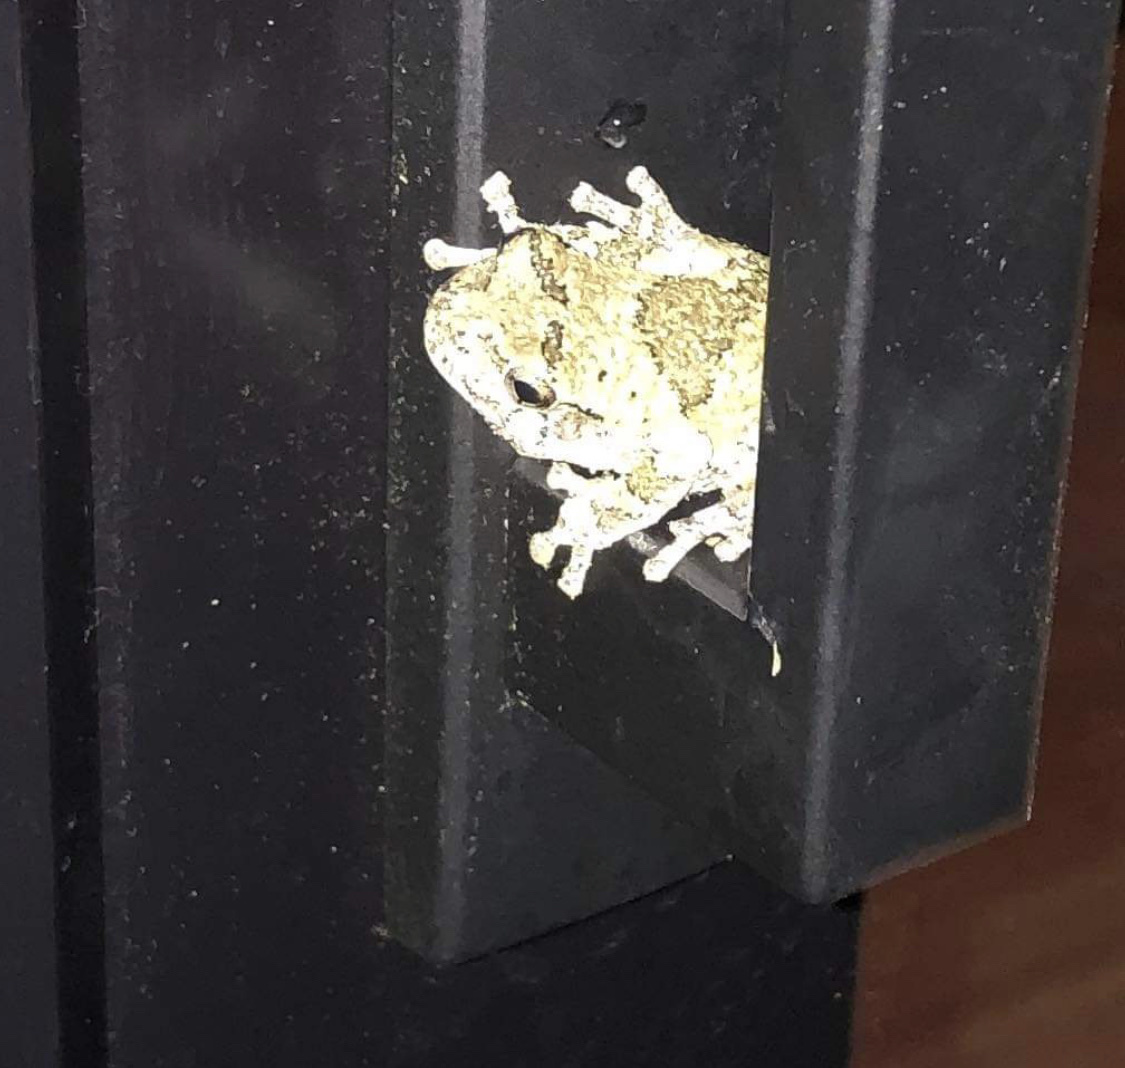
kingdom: Animalia
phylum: Chordata
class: Amphibia
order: Anura
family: Hylidae
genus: Dryophytes
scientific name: Dryophytes versicolor
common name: Gray treefrog
